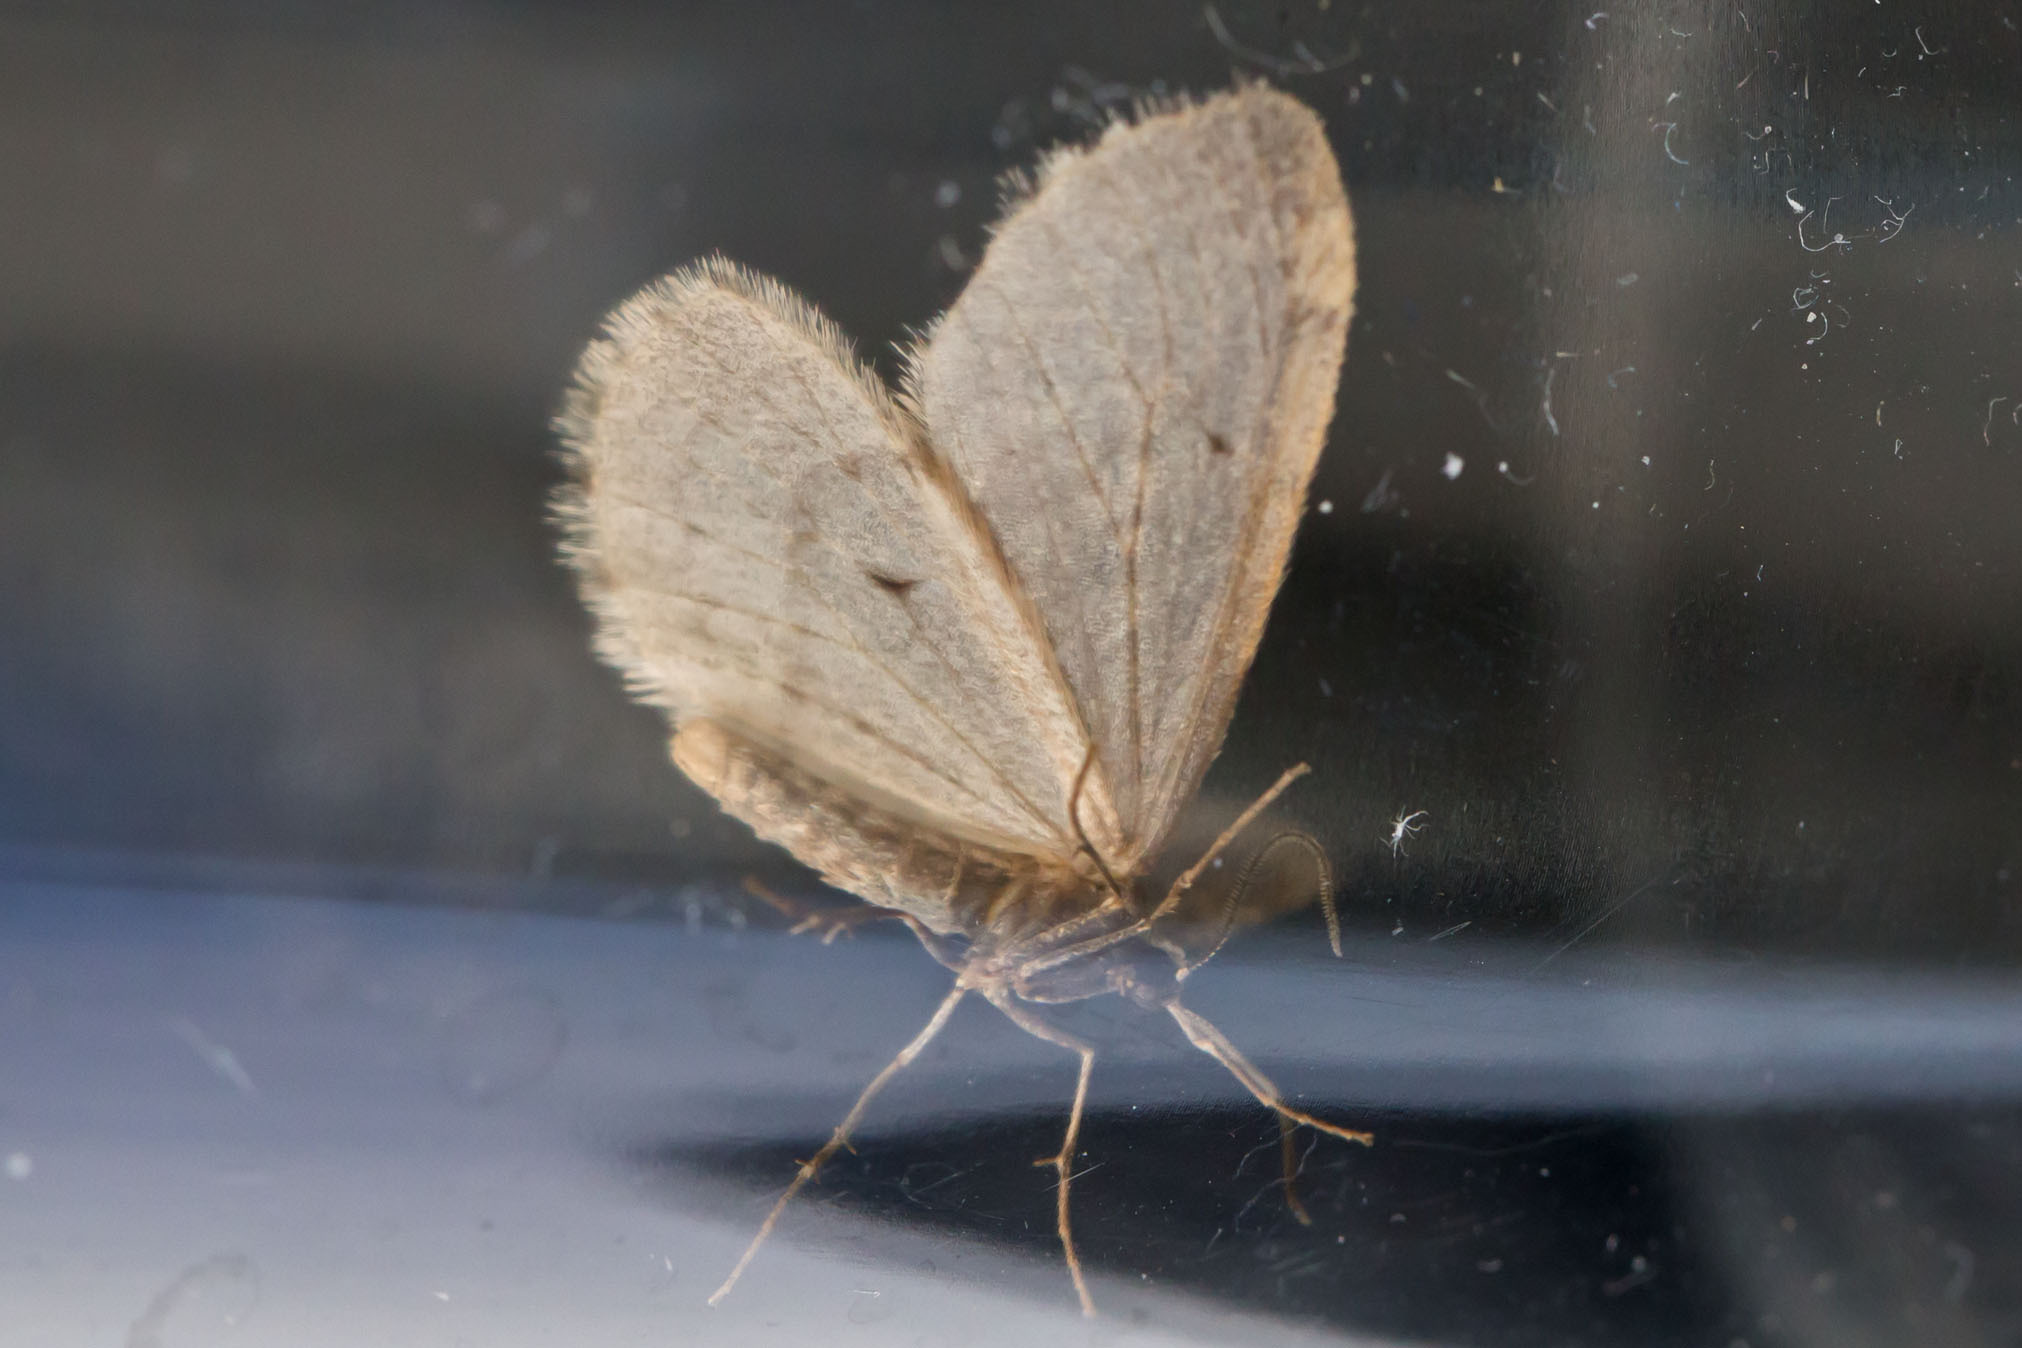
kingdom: Animalia
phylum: Arthropoda
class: Insecta
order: Lepidoptera
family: Geometridae
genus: Operophtera
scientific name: Operophtera bruceata
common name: Bruce spanworm
